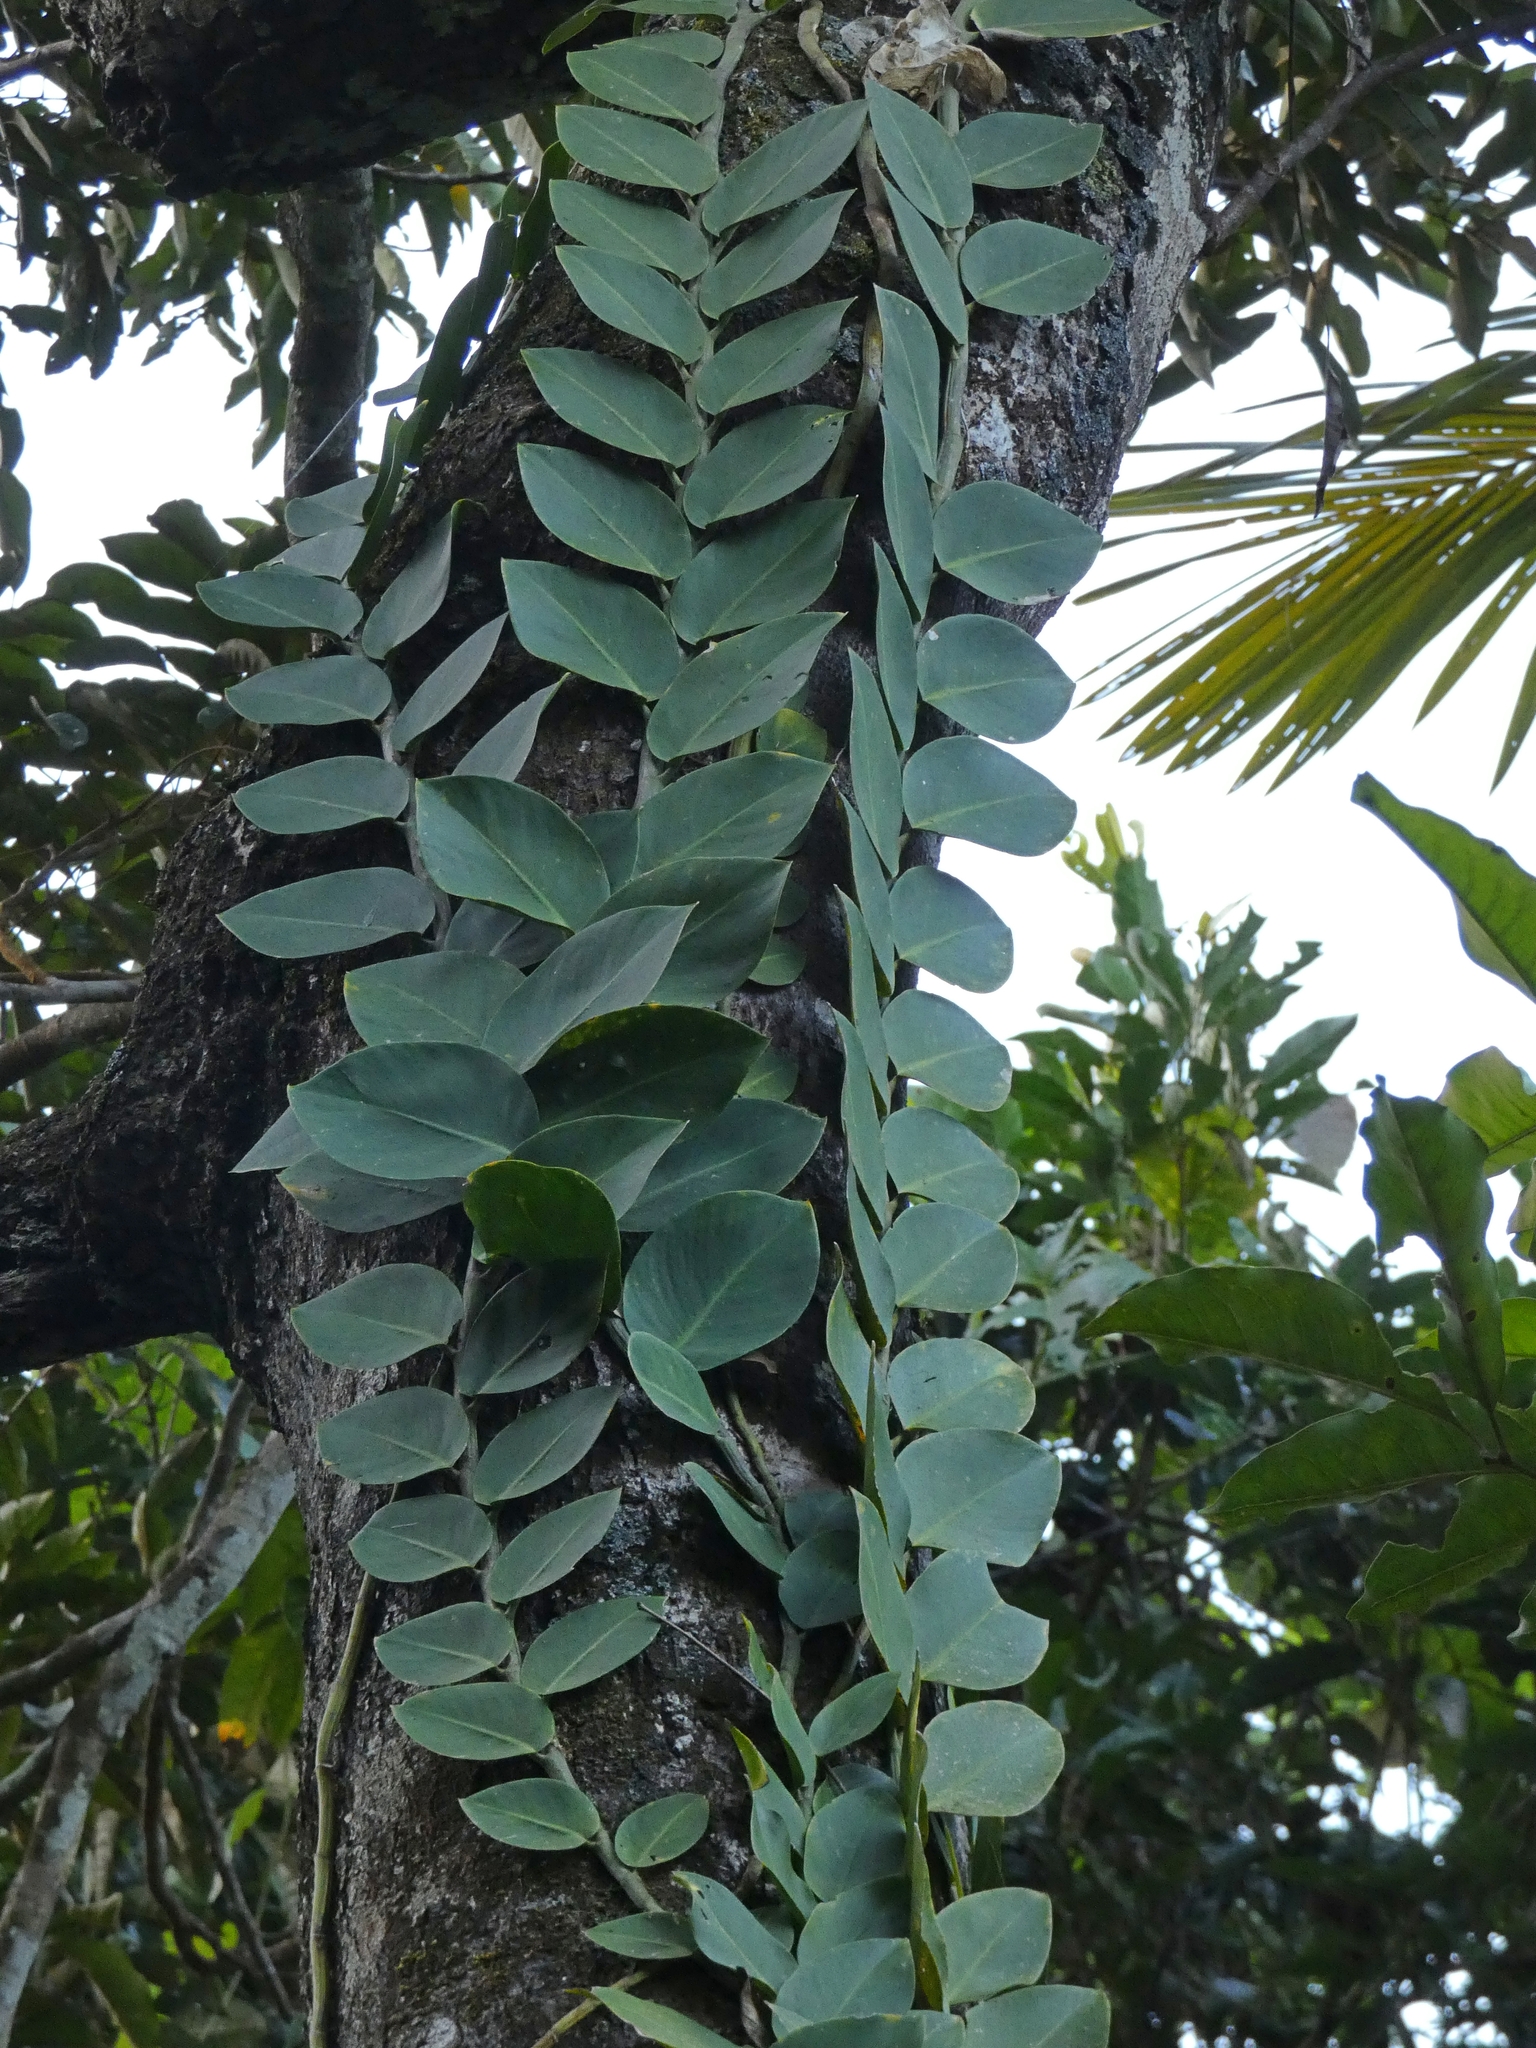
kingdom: Plantae
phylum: Tracheophyta
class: Liliopsida
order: Alismatales
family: Araceae
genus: Rhaphidophora
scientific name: Rhaphidophora hayi
